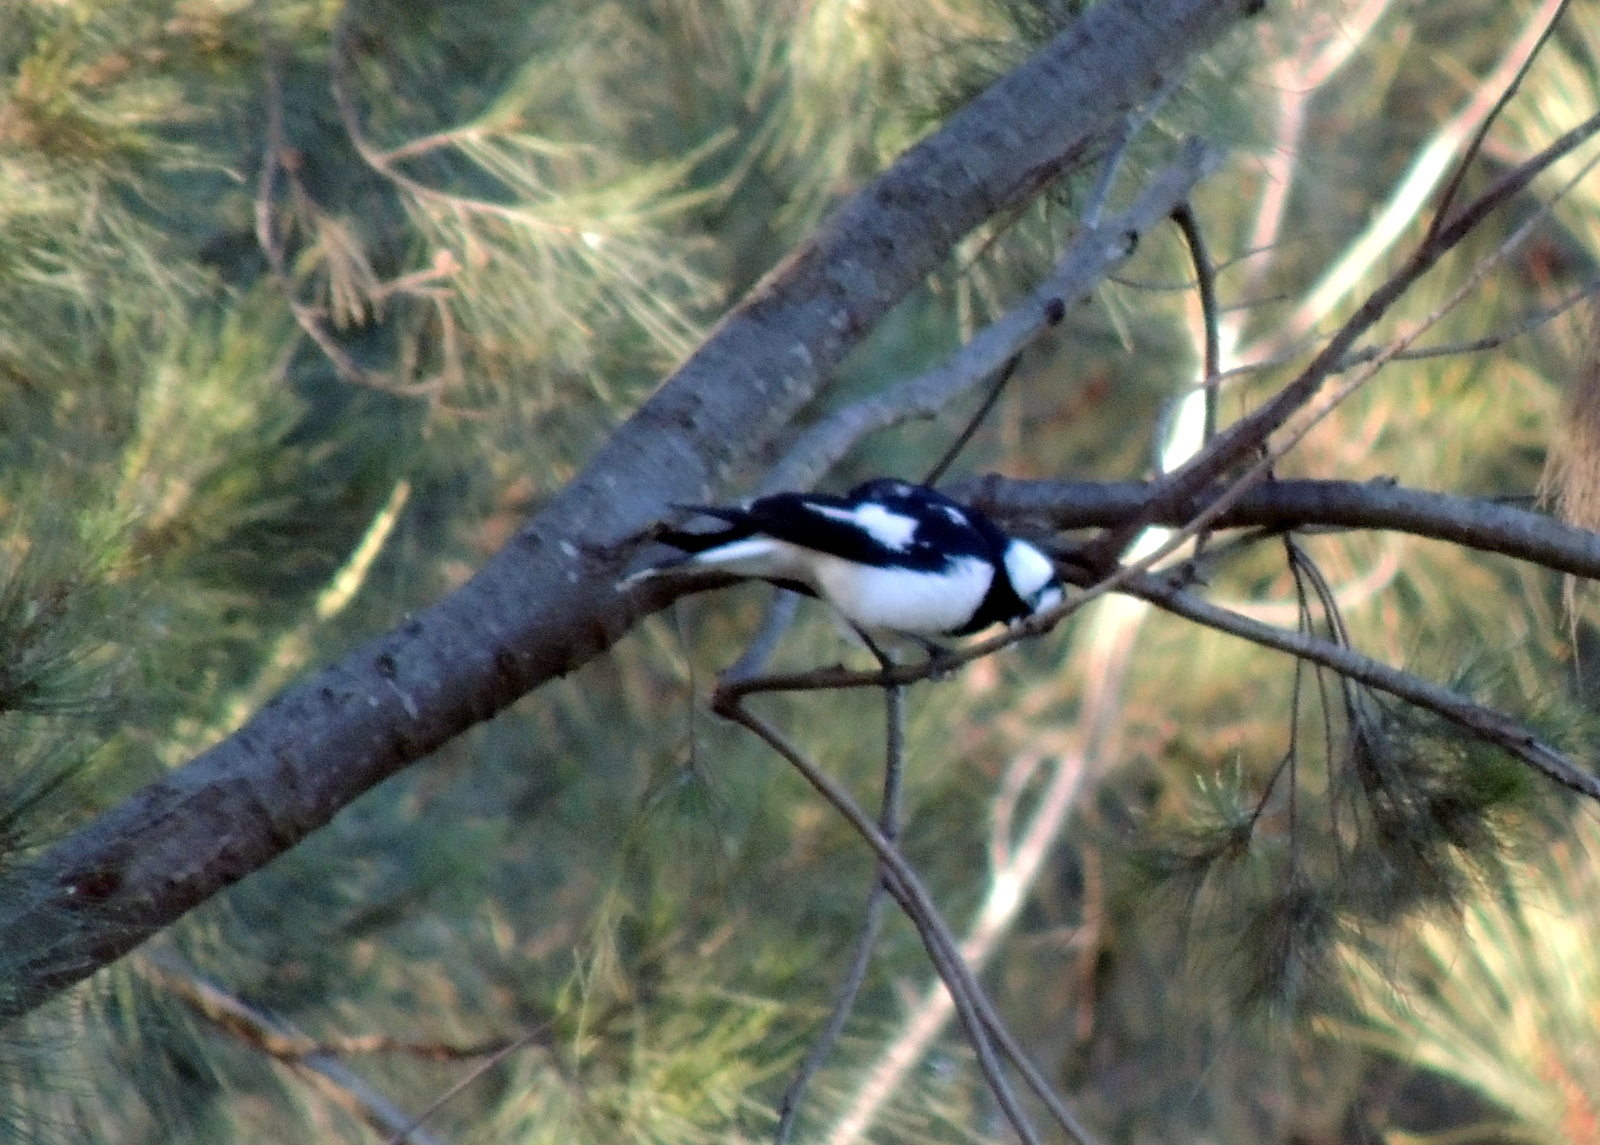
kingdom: Animalia
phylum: Chordata
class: Aves
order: Passeriformes
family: Monarchidae
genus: Grallina
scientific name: Grallina cyanoleuca
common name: Magpie-lark
